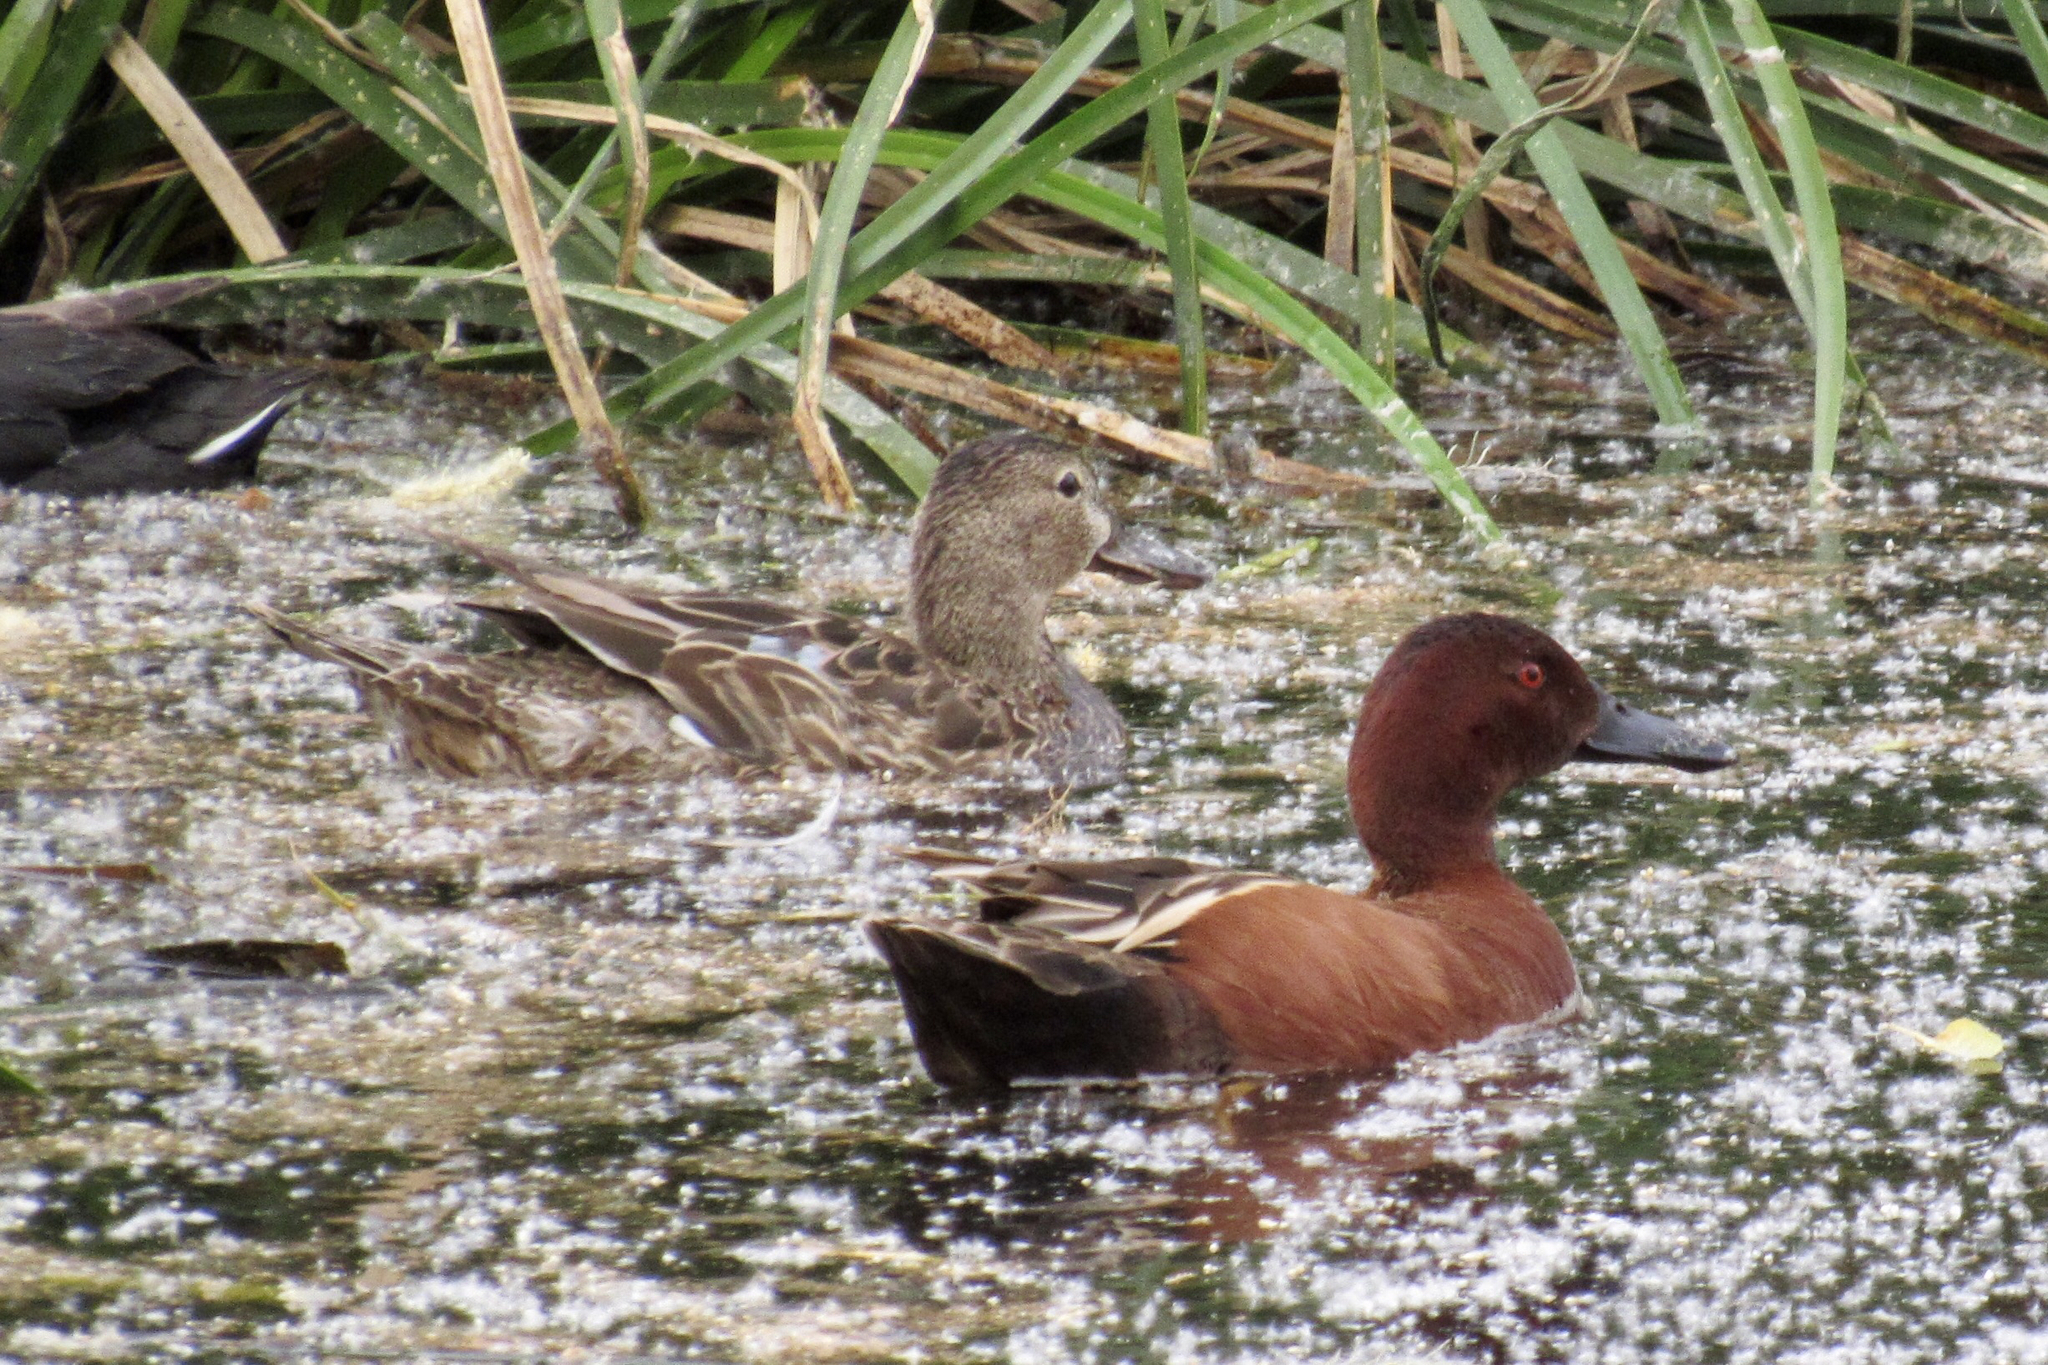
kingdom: Animalia
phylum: Chordata
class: Aves
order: Anseriformes
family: Anatidae
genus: Spatula
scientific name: Spatula cyanoptera
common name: Cinnamon teal
